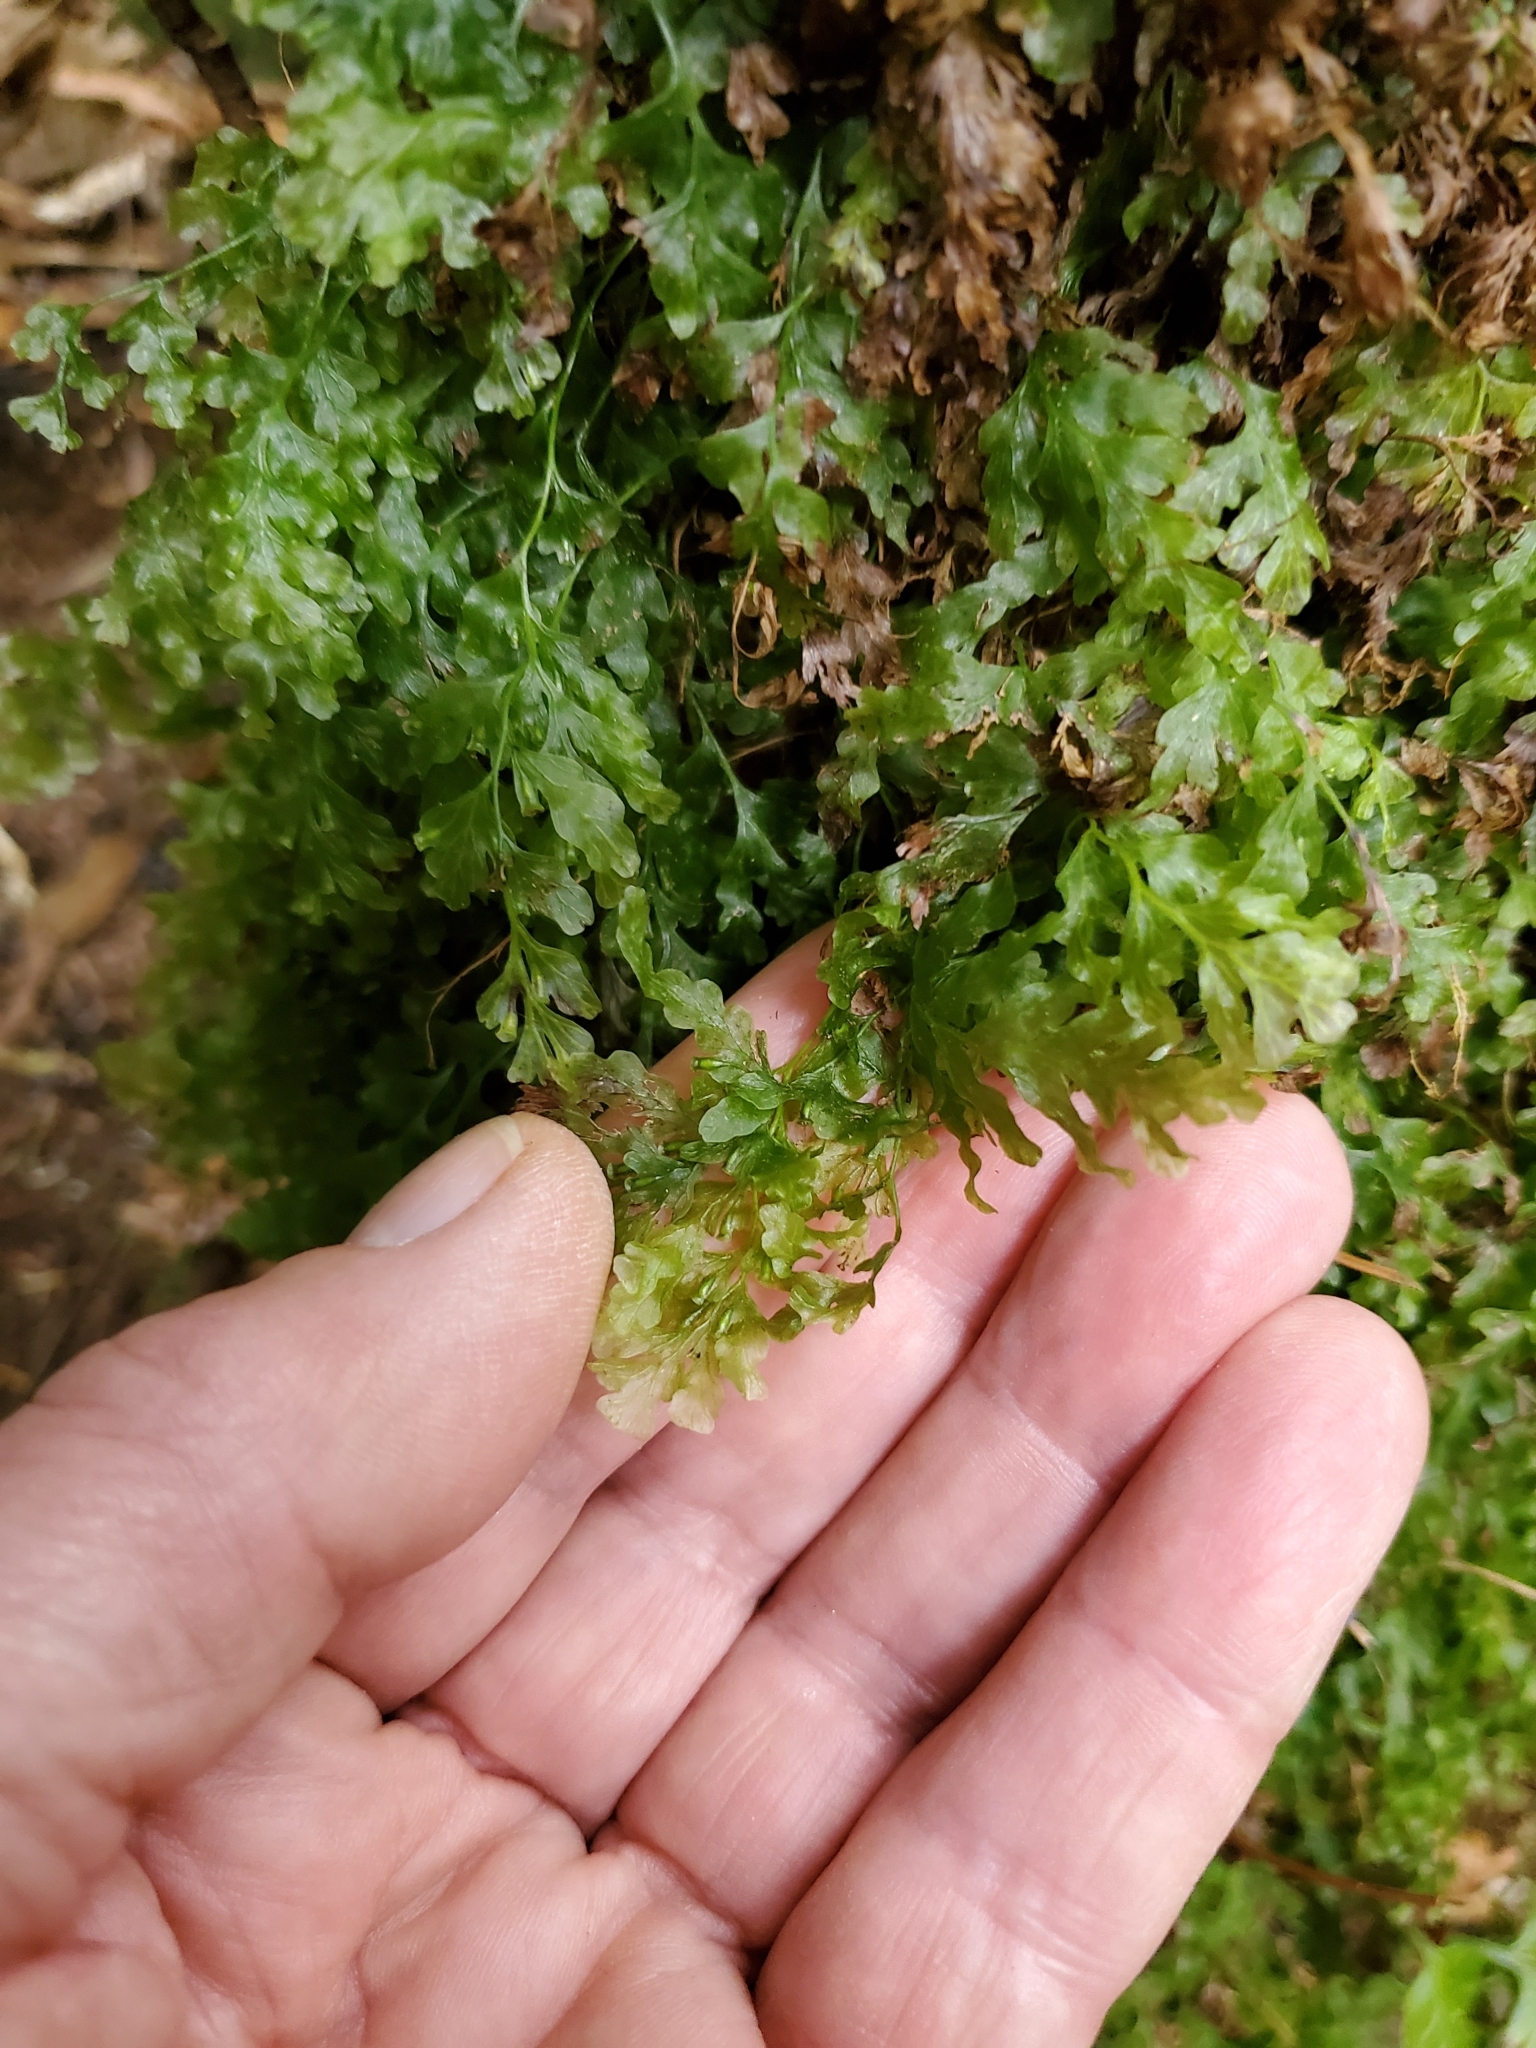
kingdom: Plantae
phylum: Tracheophyta
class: Polypodiopsida
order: Hymenophyllales
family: Hymenophyllaceae
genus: Polyphlebium
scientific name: Polyphlebium venosum
